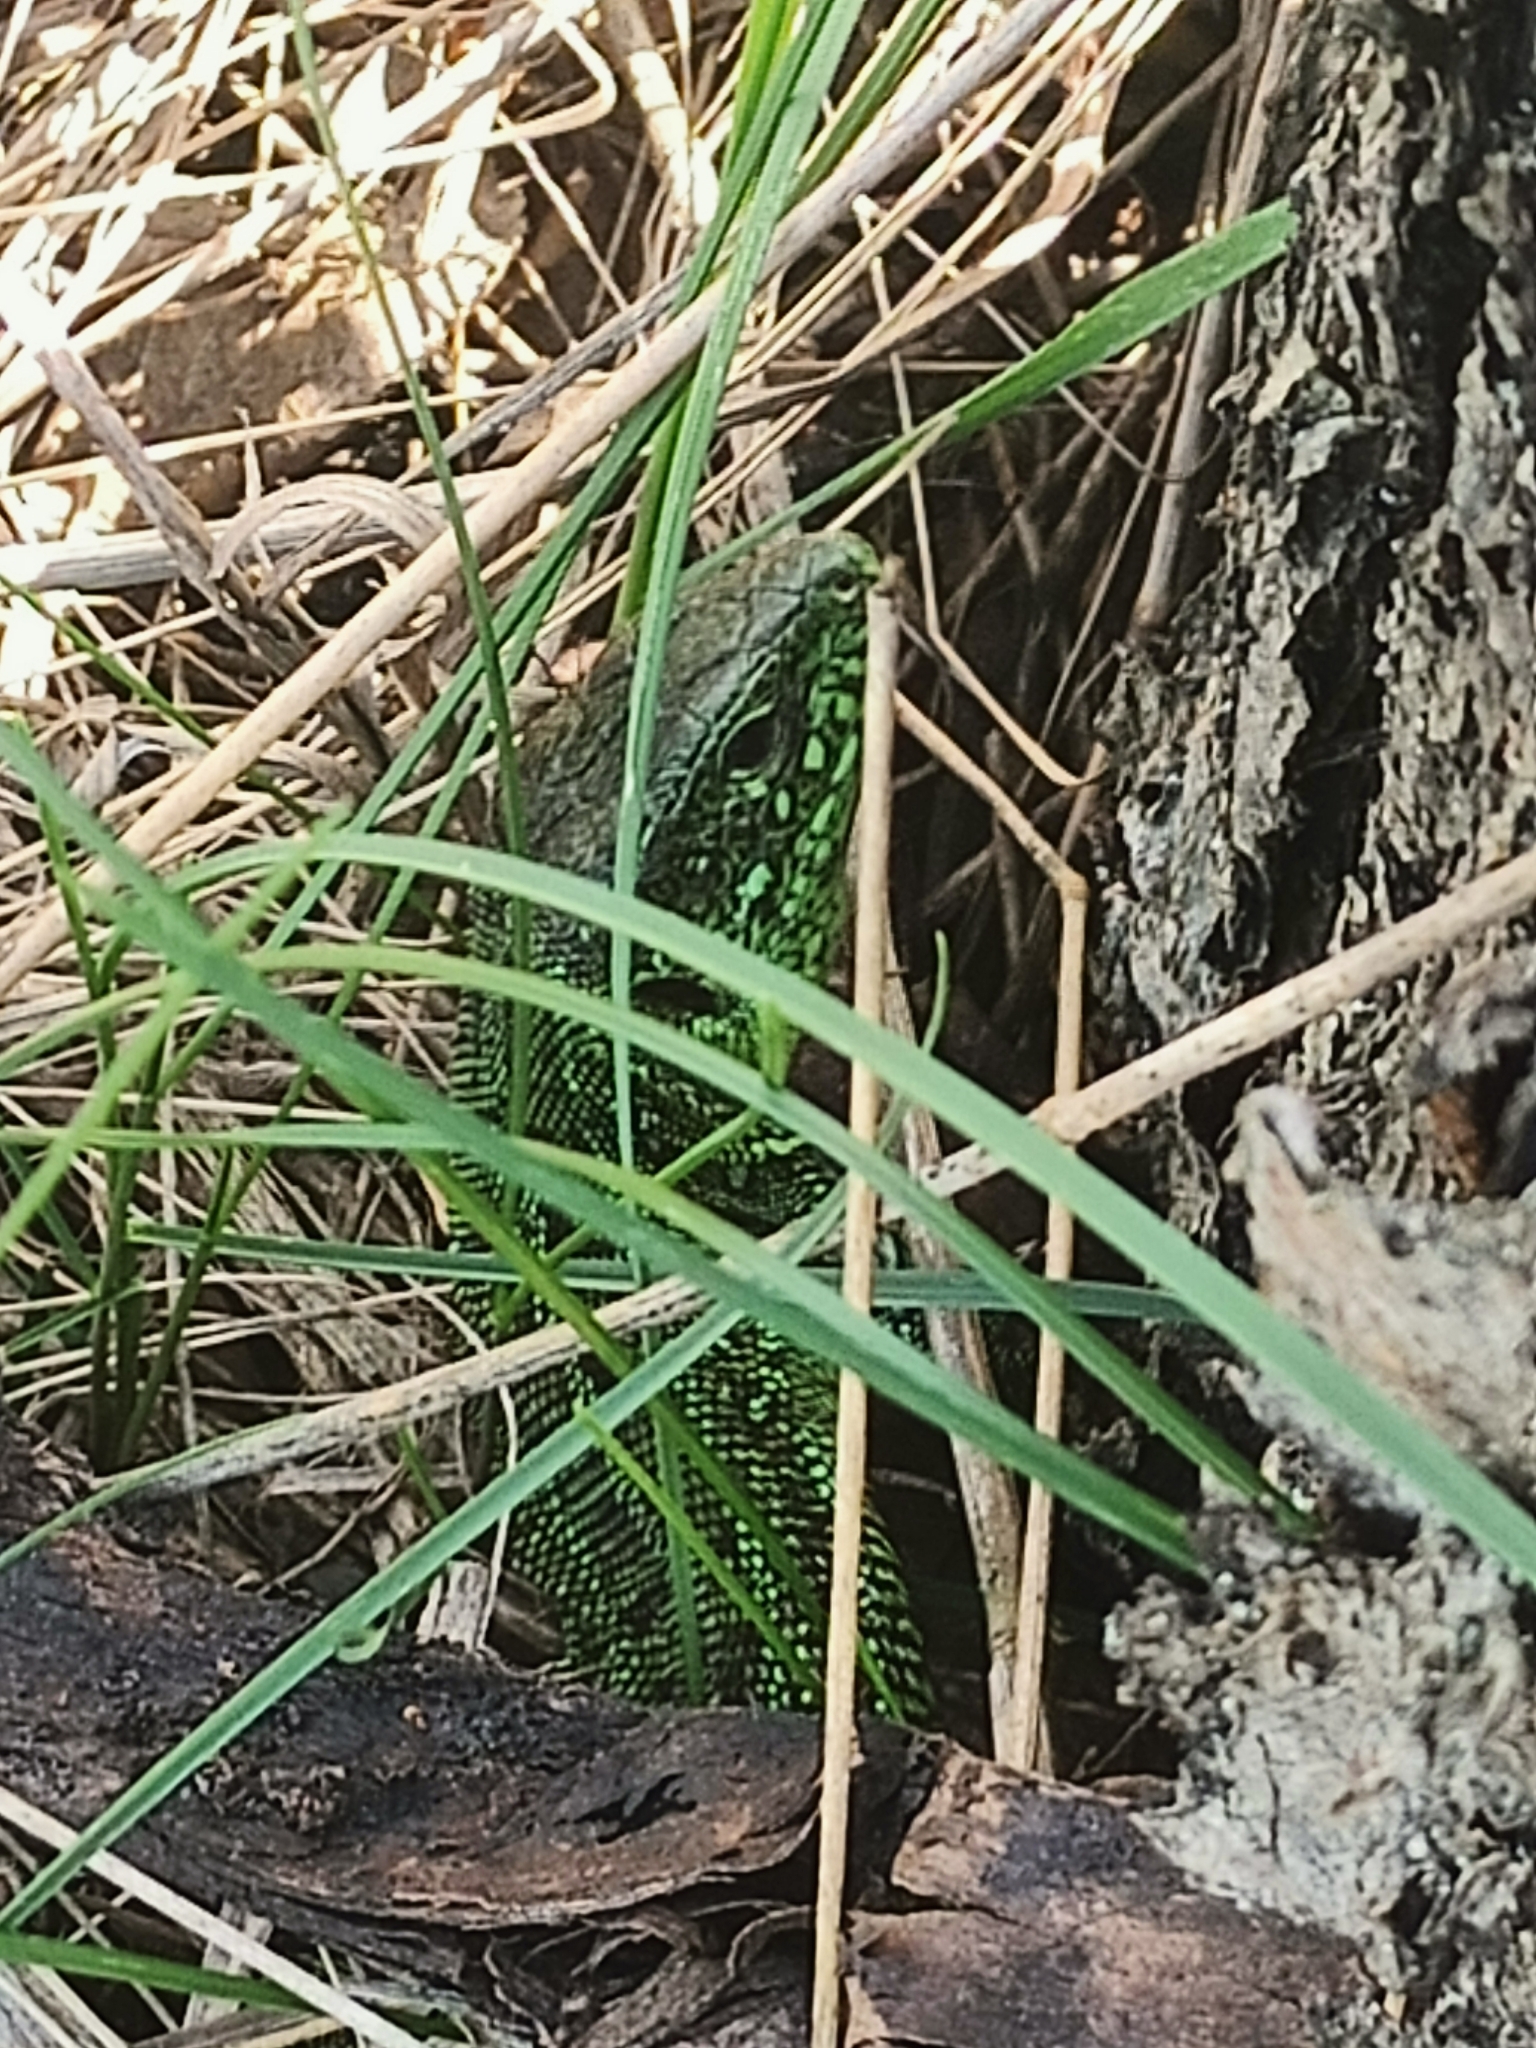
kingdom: Animalia
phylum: Chordata
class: Squamata
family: Lacertidae
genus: Lacerta
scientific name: Lacerta agilis
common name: Sand lizard
